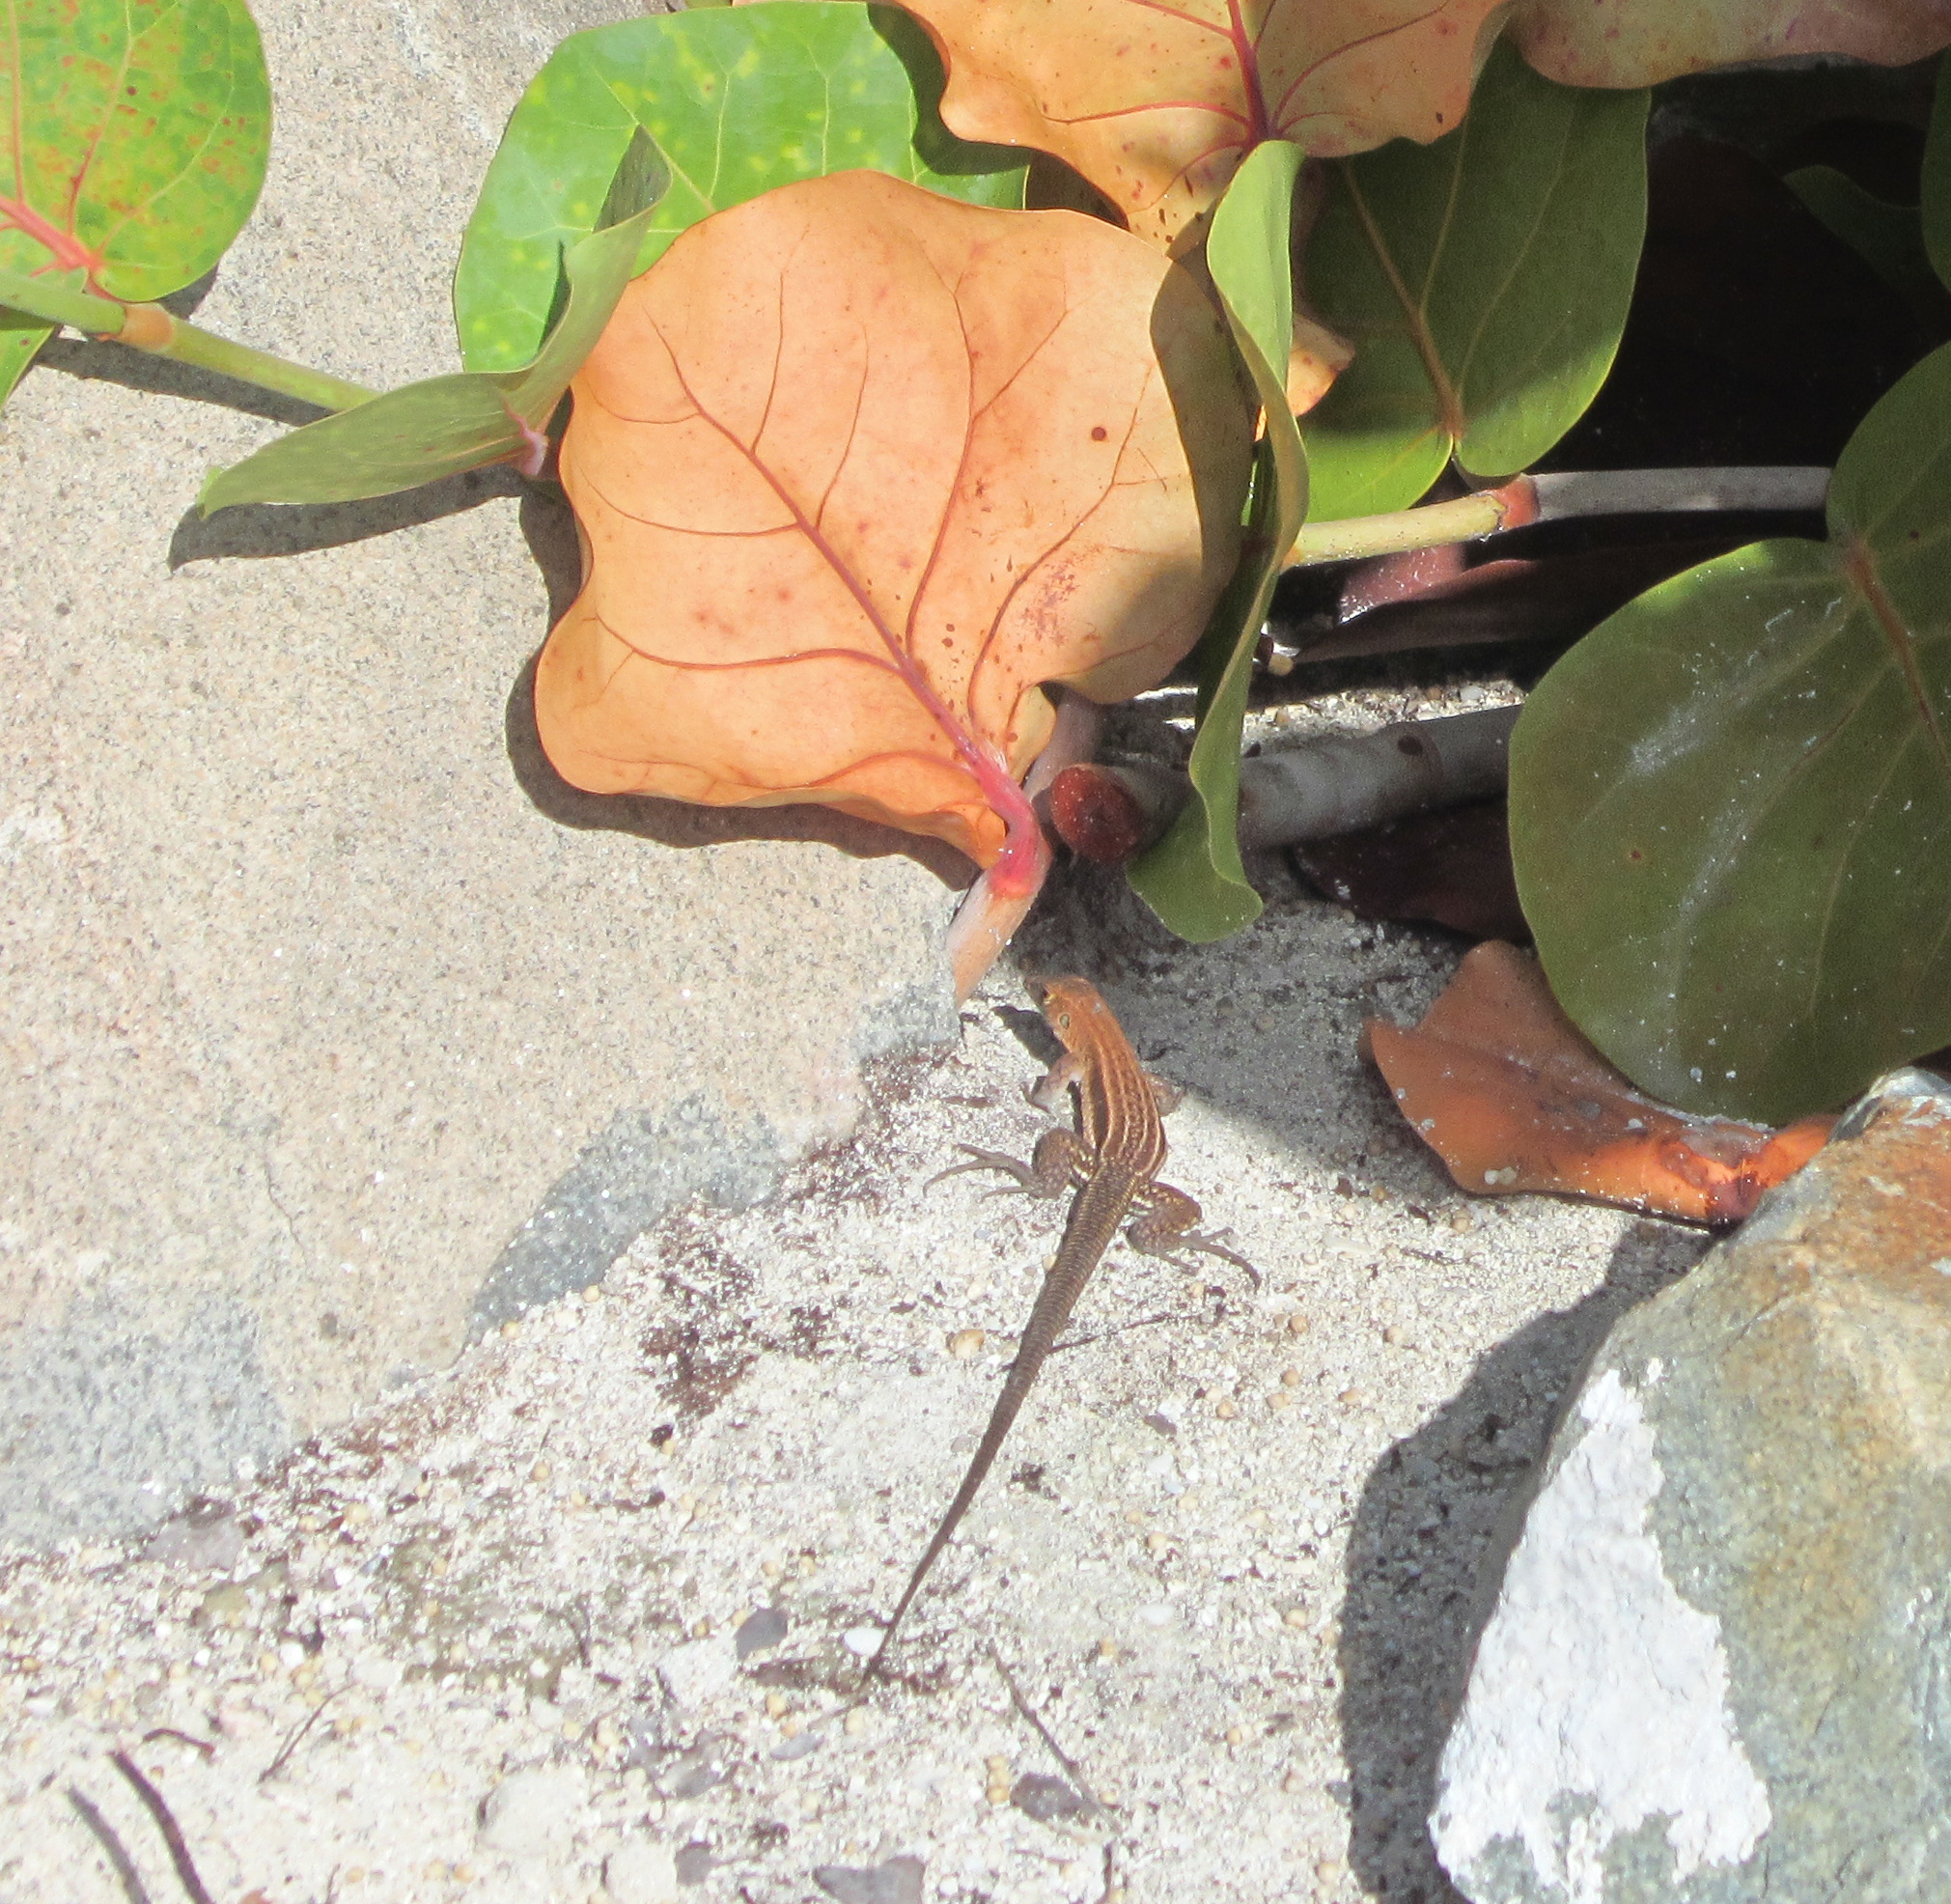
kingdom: Animalia
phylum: Chordata
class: Squamata
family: Teiidae
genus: Pholidoscelis
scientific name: Pholidoscelis plei
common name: Anguilla bank ameiva
